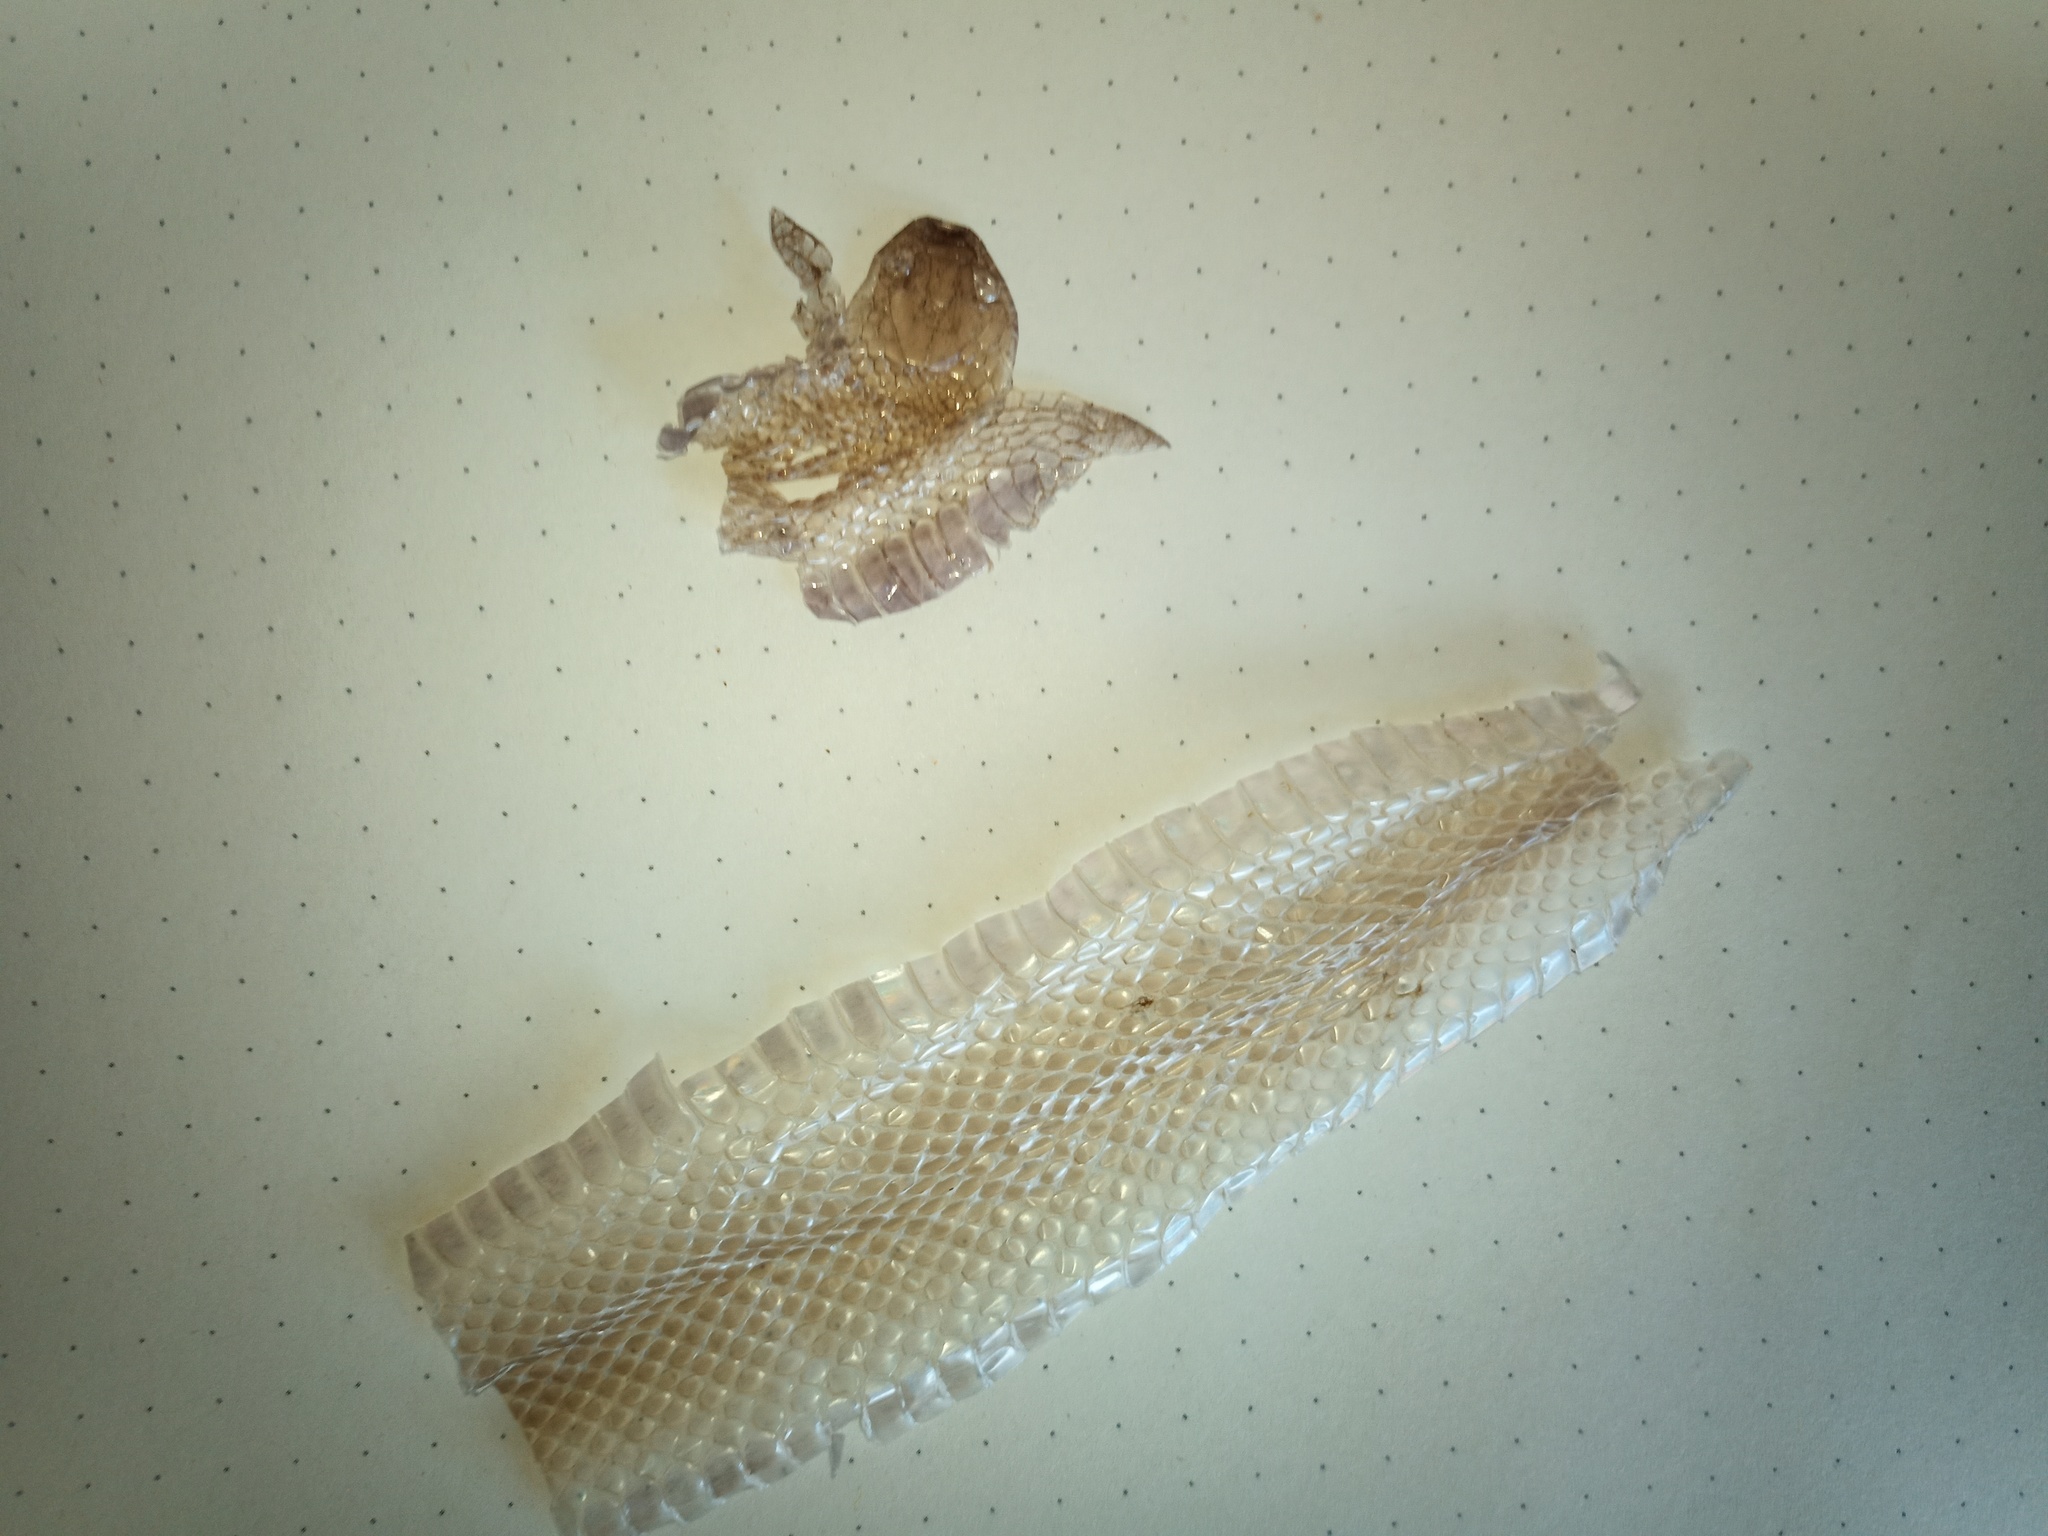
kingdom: Animalia
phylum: Chordata
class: Squamata
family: Lamprophiidae
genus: Lycodonomorphus
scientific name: Lycodonomorphus rufulus
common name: Brown water snake
